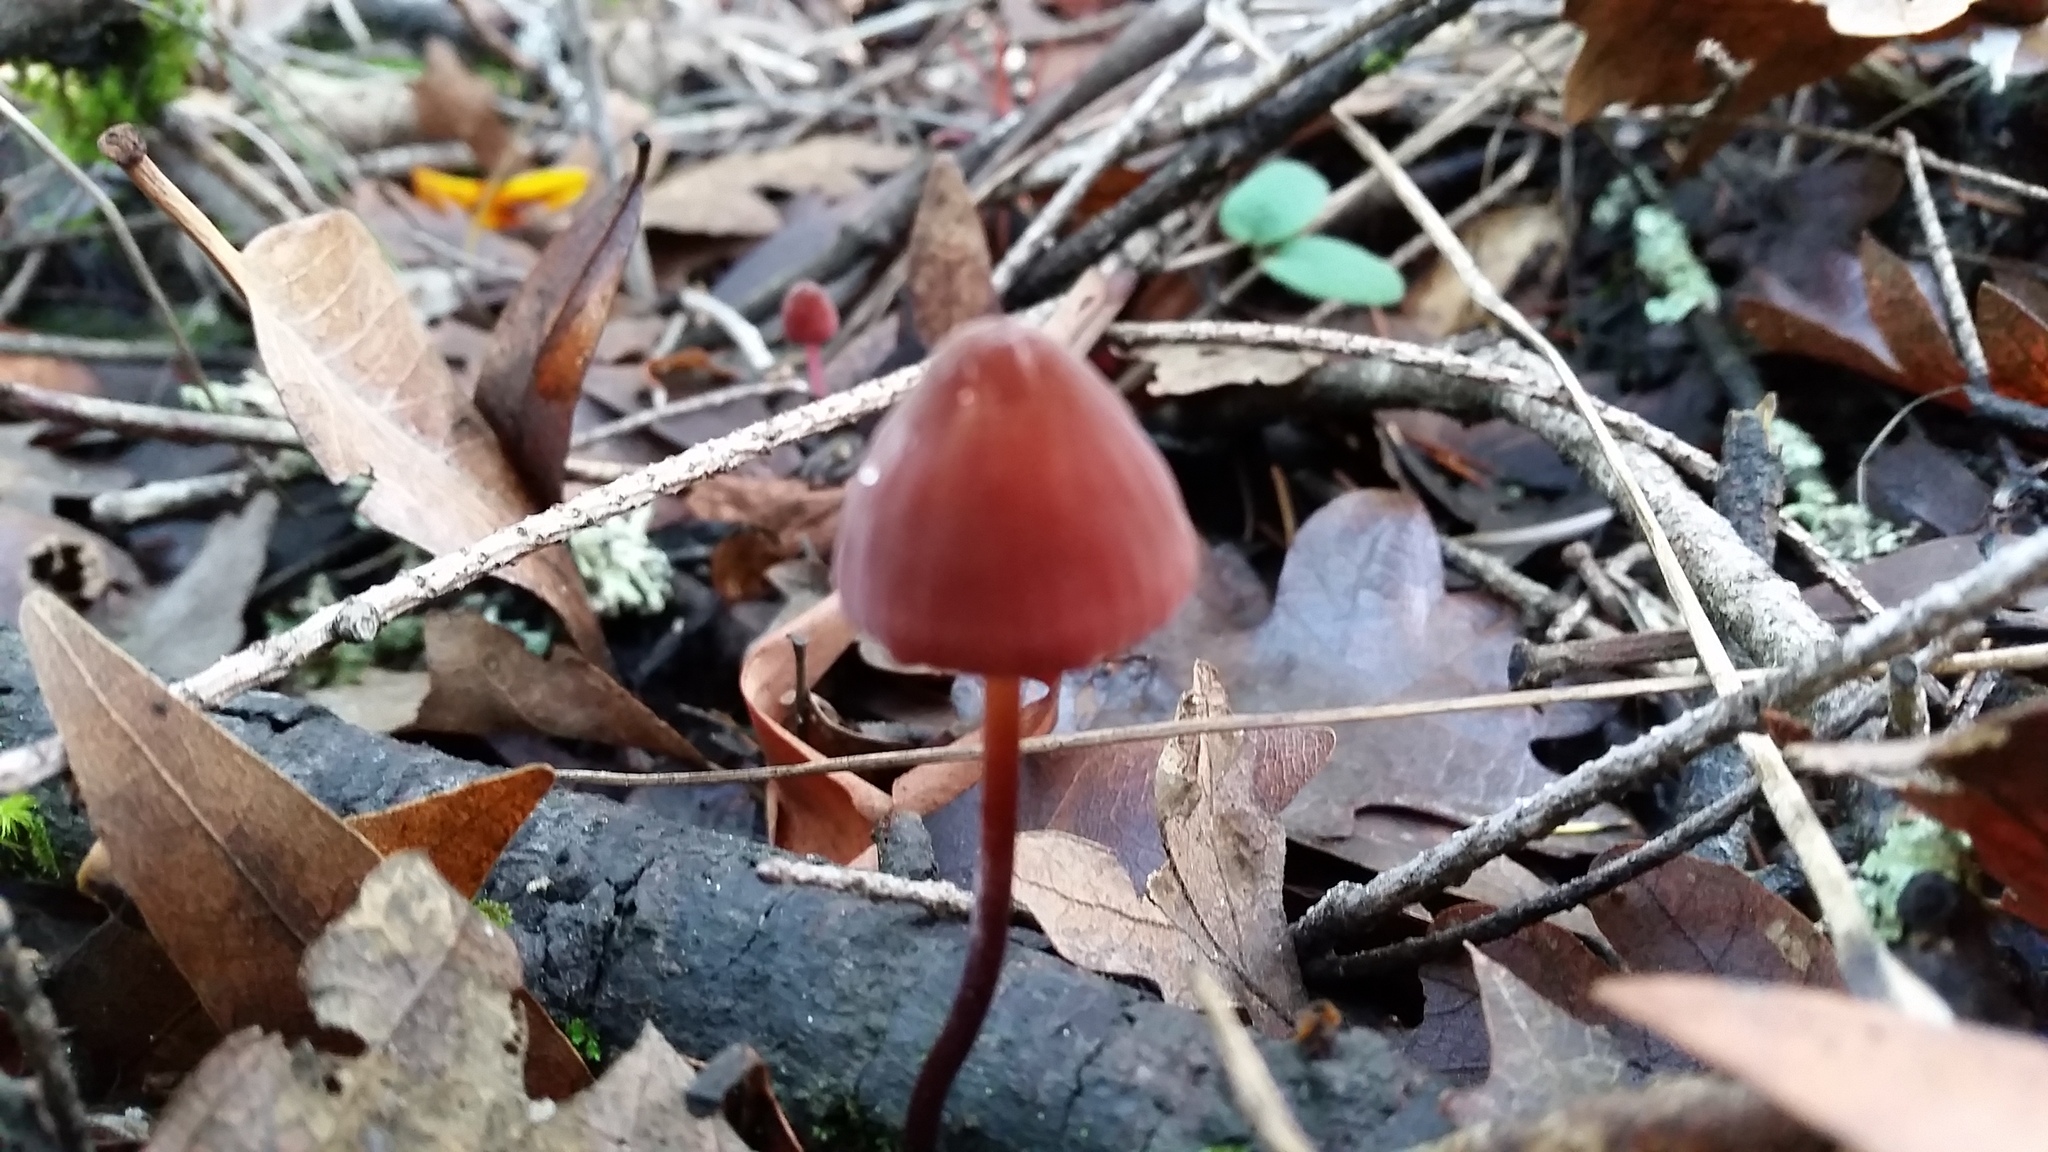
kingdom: Fungi
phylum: Basidiomycota
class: Agaricomycetes
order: Agaricales
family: Marasmiaceae
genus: Marasmius
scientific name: Marasmius plicatulus
